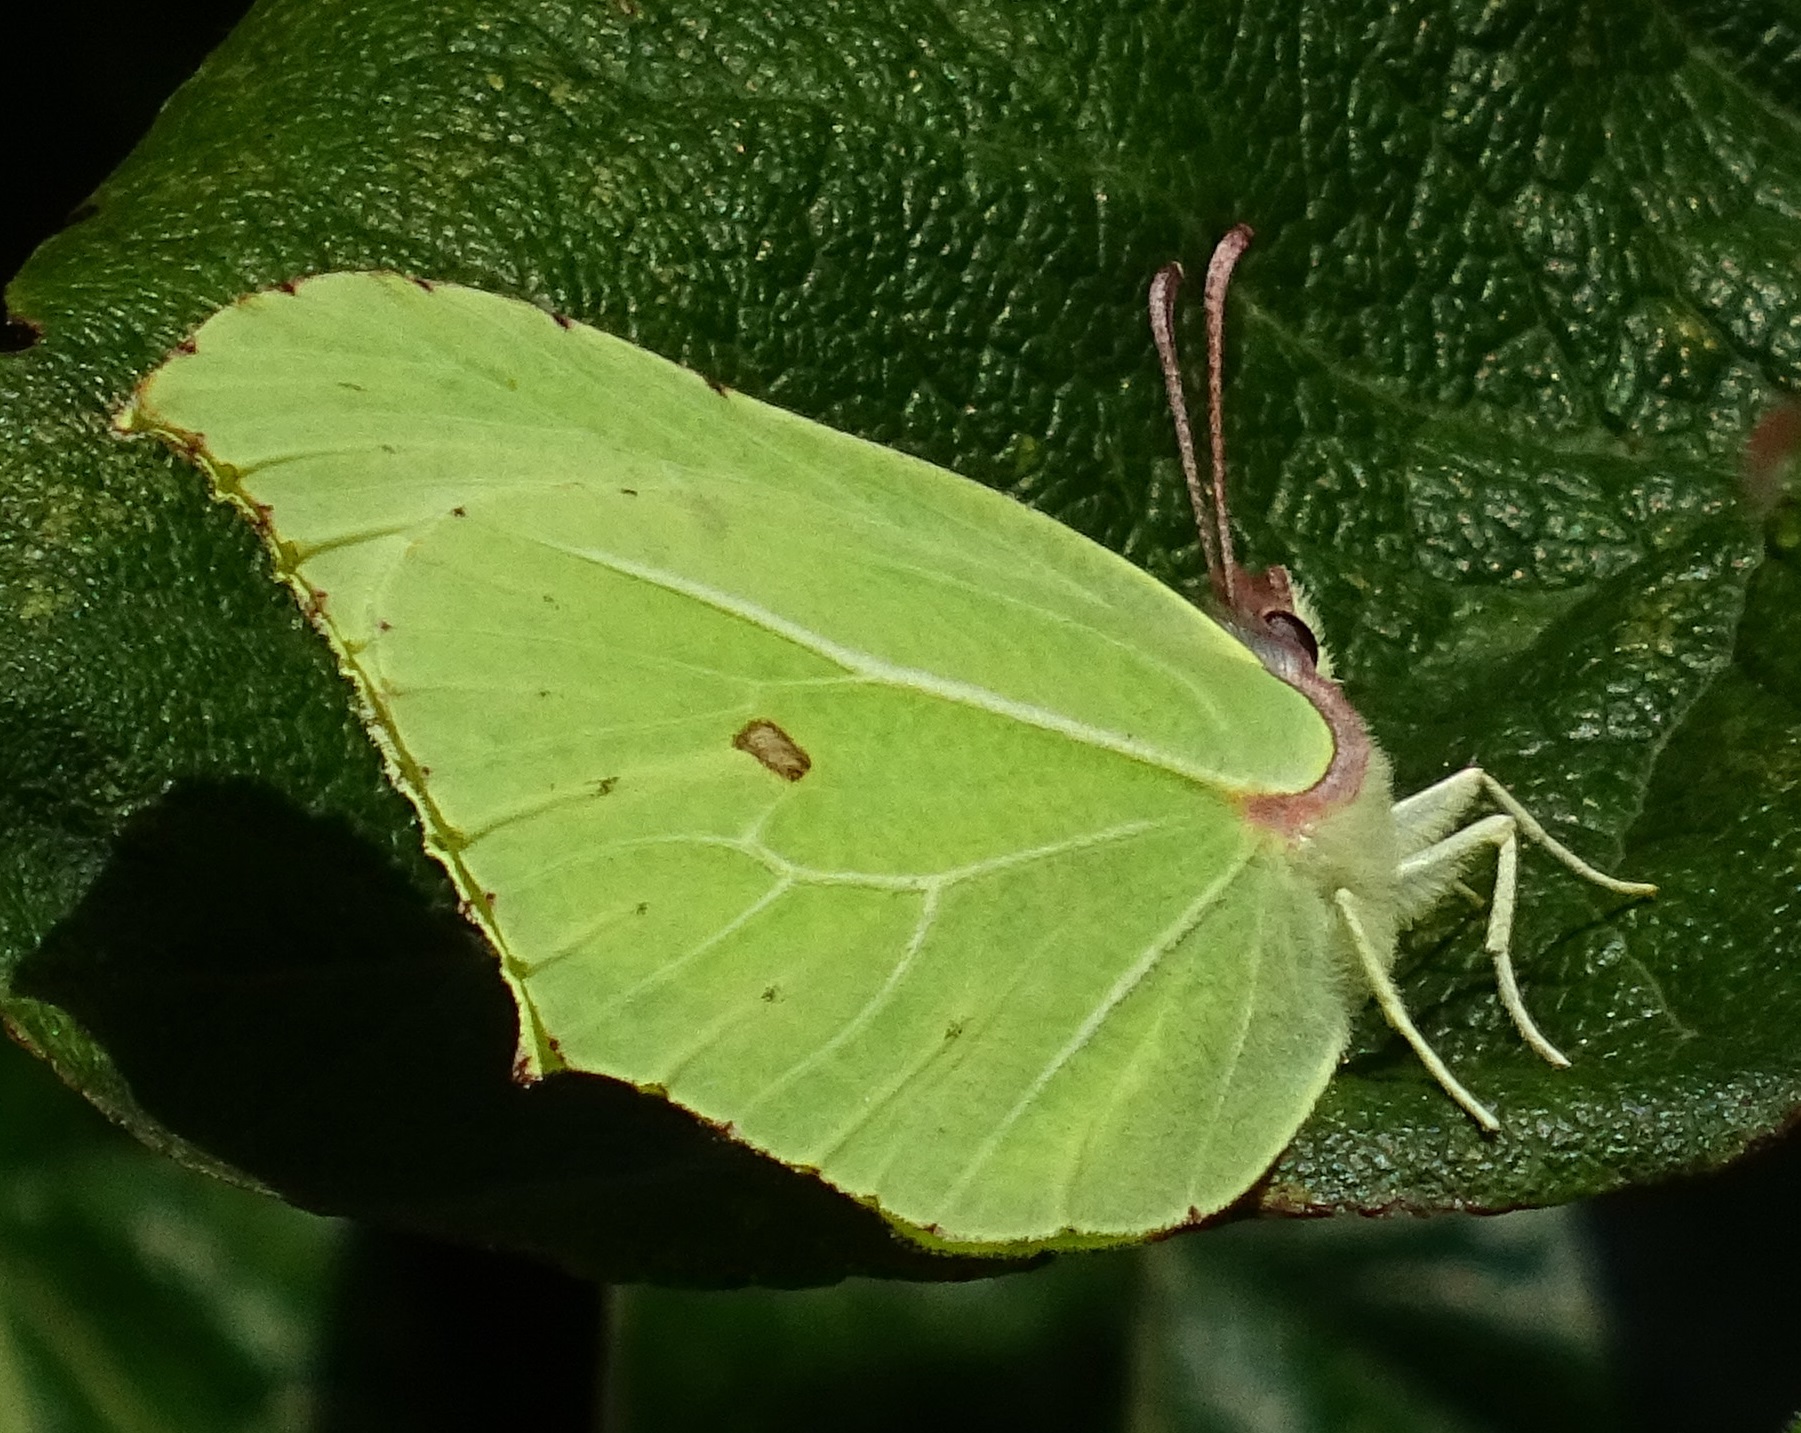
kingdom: Animalia
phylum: Arthropoda
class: Insecta
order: Lepidoptera
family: Pieridae
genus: Gonepteryx
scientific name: Gonepteryx rhamni
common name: Brimstone
